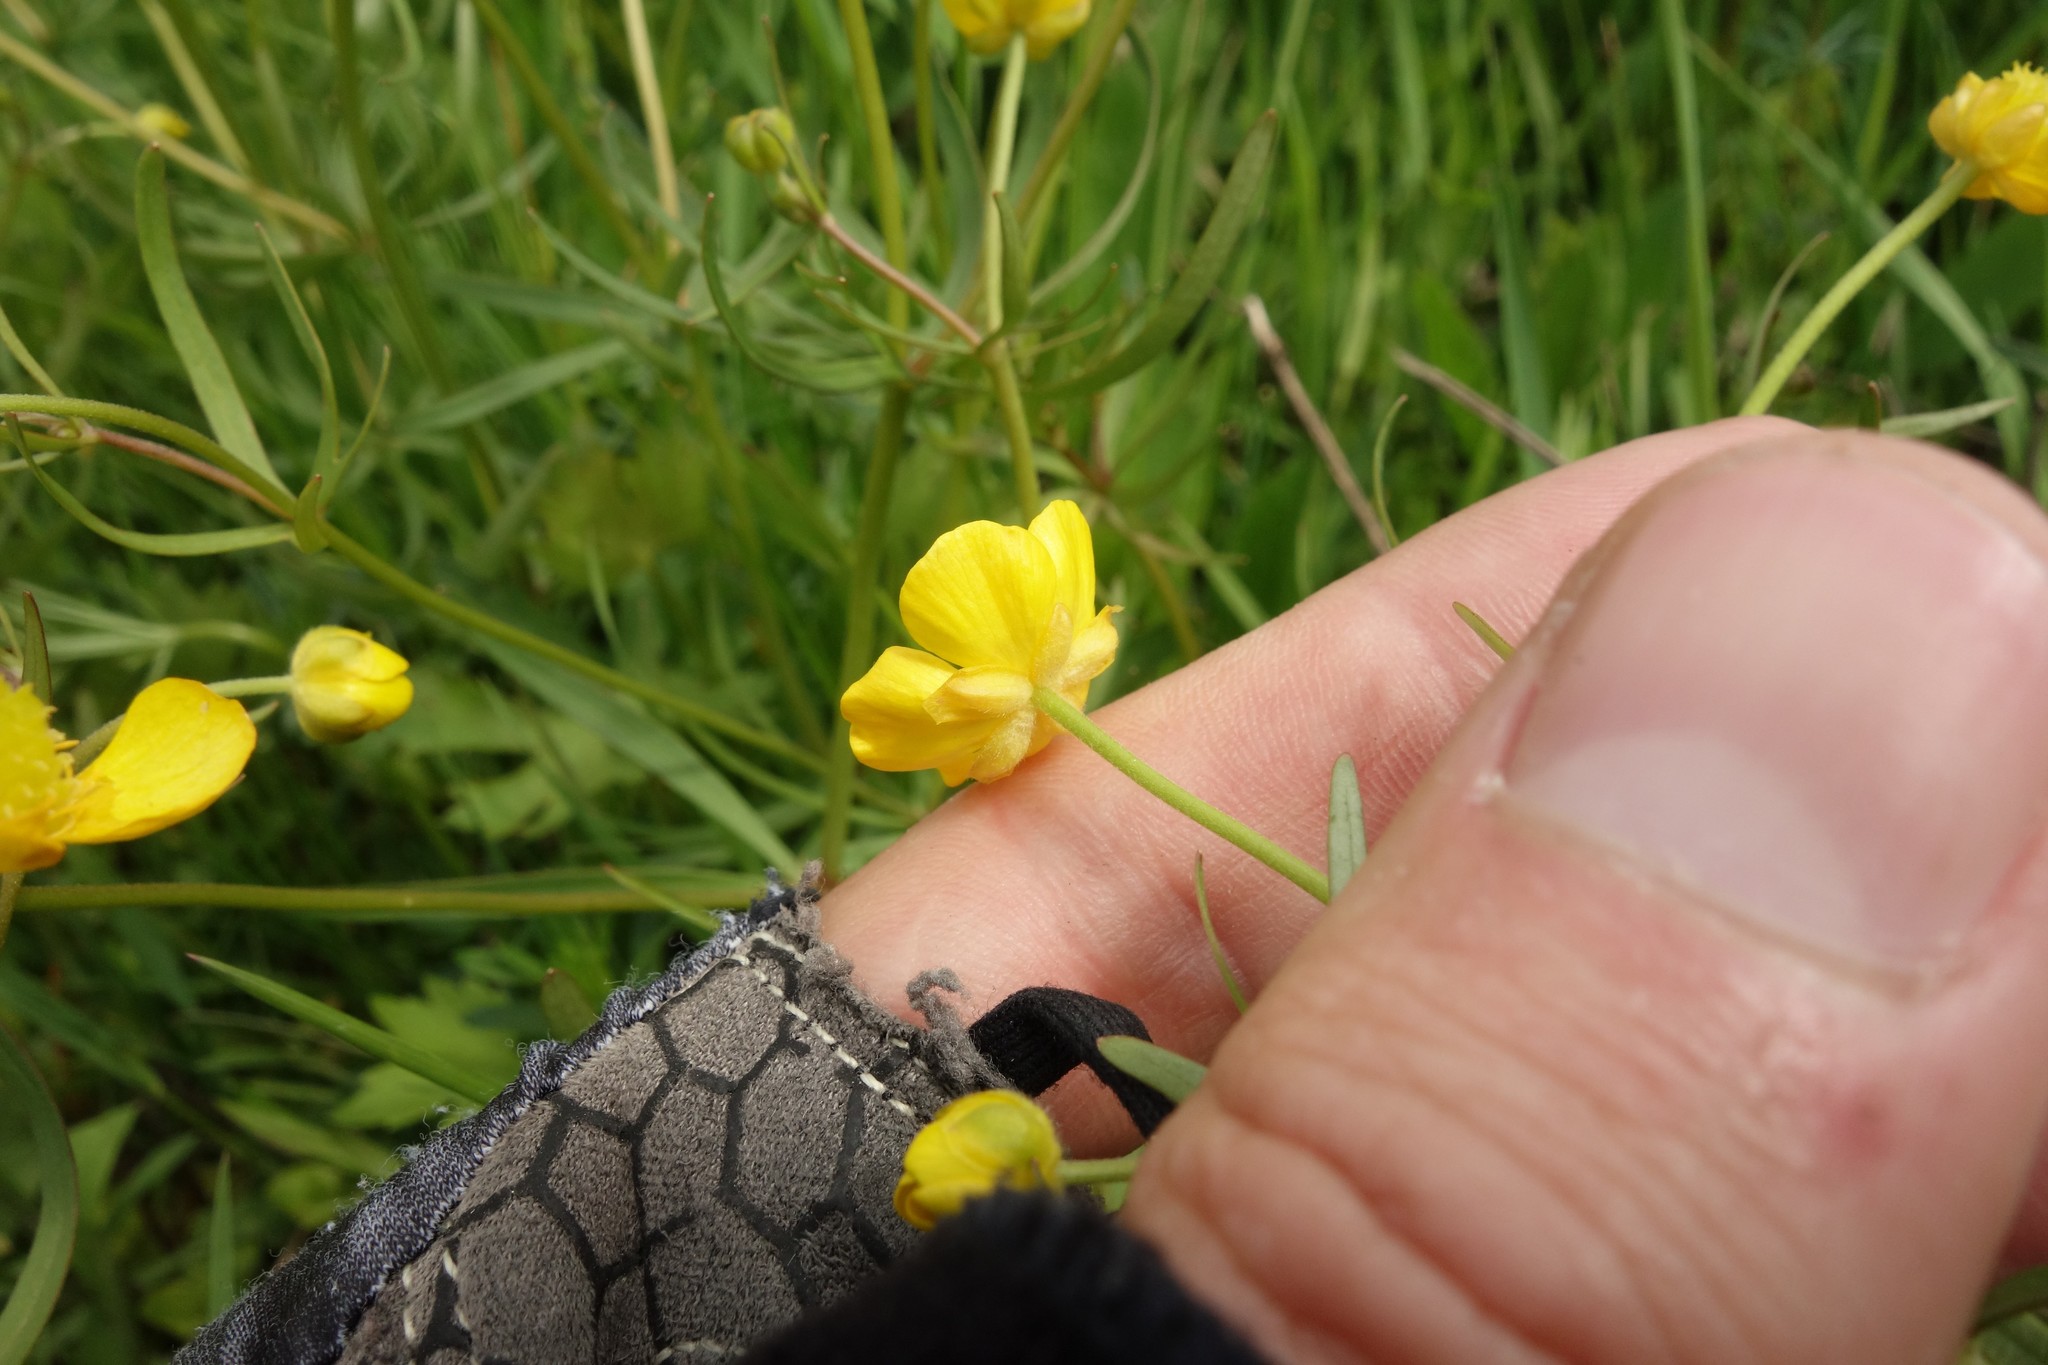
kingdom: Plantae
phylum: Tracheophyta
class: Magnoliopsida
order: Ranunculales
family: Ranunculaceae
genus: Ranunculus
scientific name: Ranunculus auricomus
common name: Goldilocks buttercup
